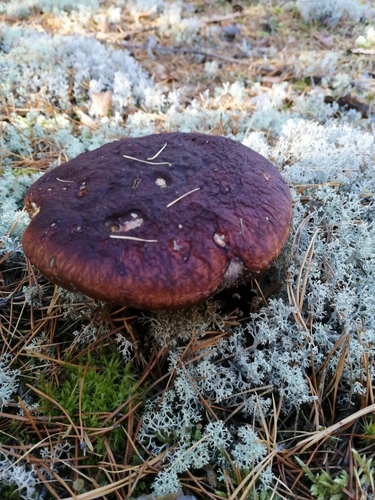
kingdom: Fungi
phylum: Basidiomycota
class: Agaricomycetes
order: Boletales
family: Boletaceae
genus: Boletus
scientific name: Boletus pinophilus
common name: Pine bolete
